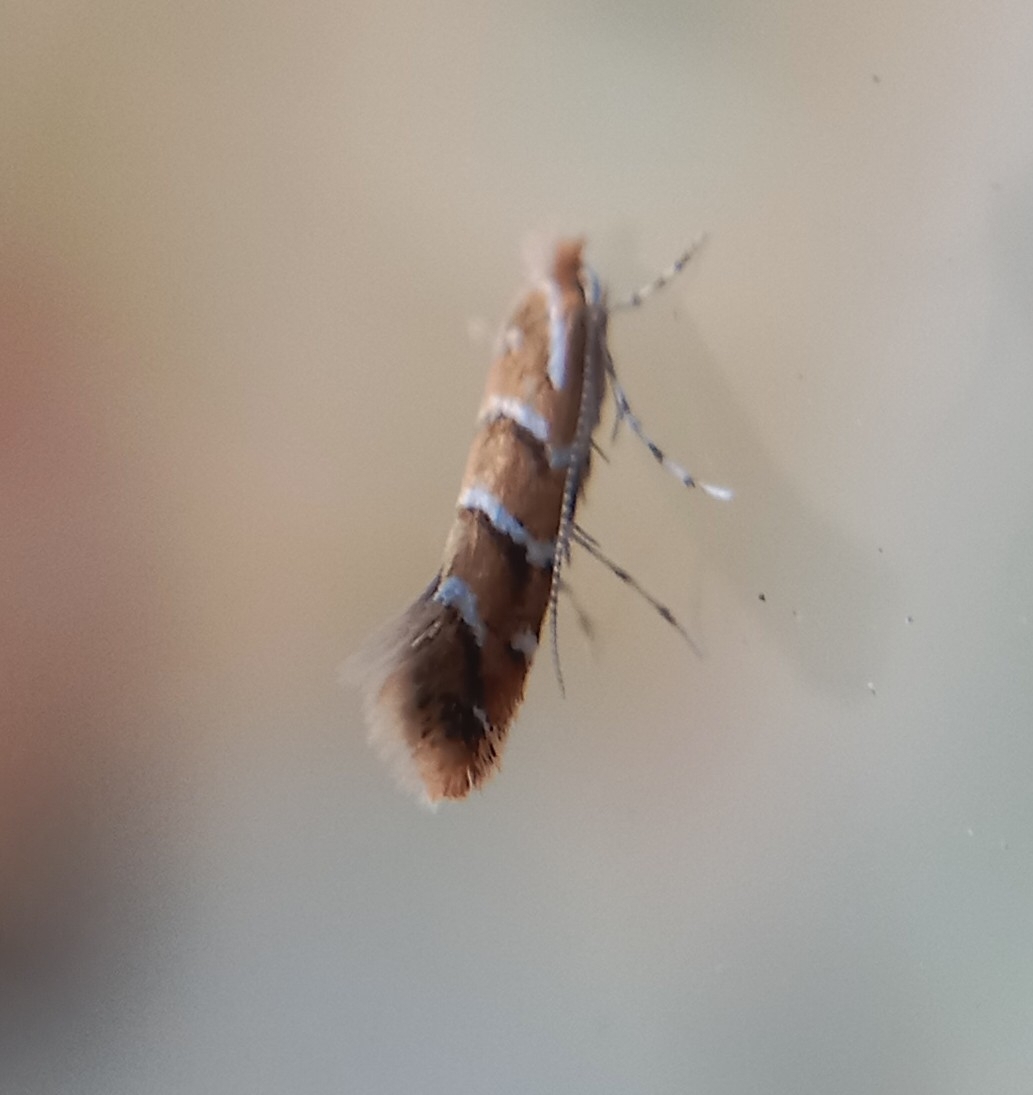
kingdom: Animalia
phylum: Arthropoda
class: Insecta
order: Lepidoptera
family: Gracillariidae
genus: Cameraria
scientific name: Cameraria ohridella
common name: Horse-chestnut leaf-miner
